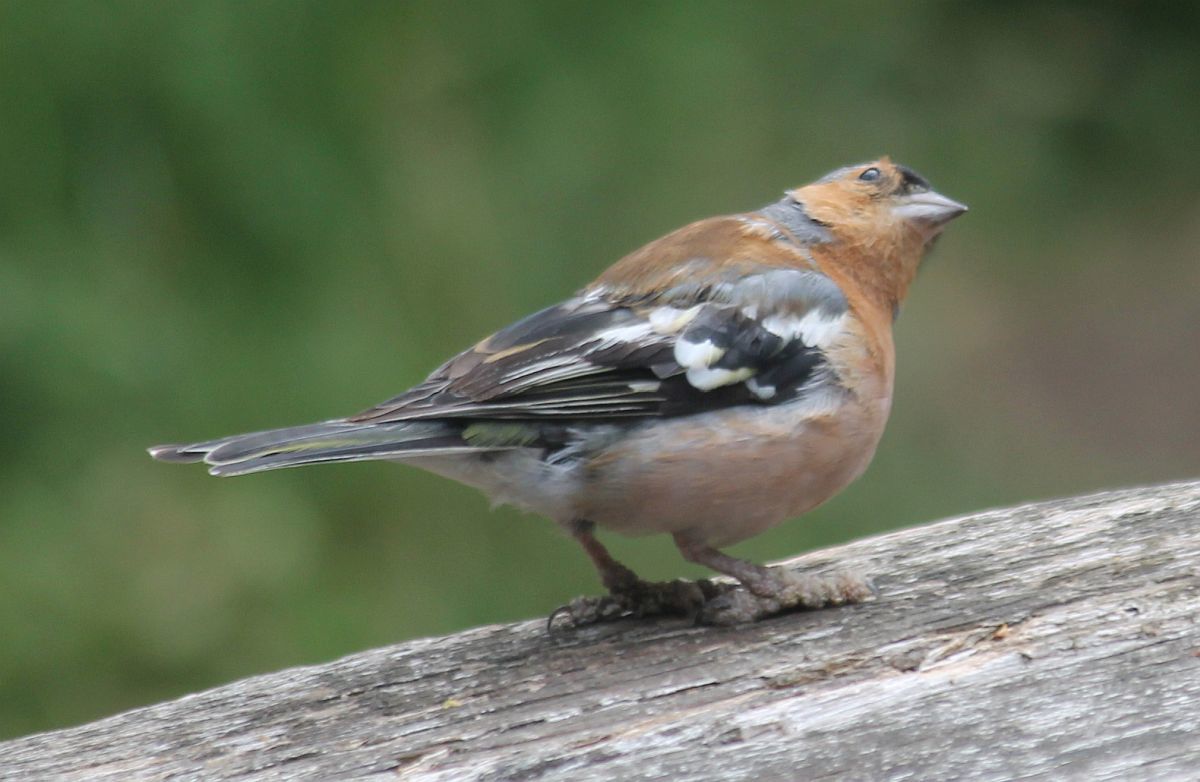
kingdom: Animalia
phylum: Chordata
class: Aves
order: Passeriformes
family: Fringillidae
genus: Fringilla
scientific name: Fringilla coelebs
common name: Common chaffinch
